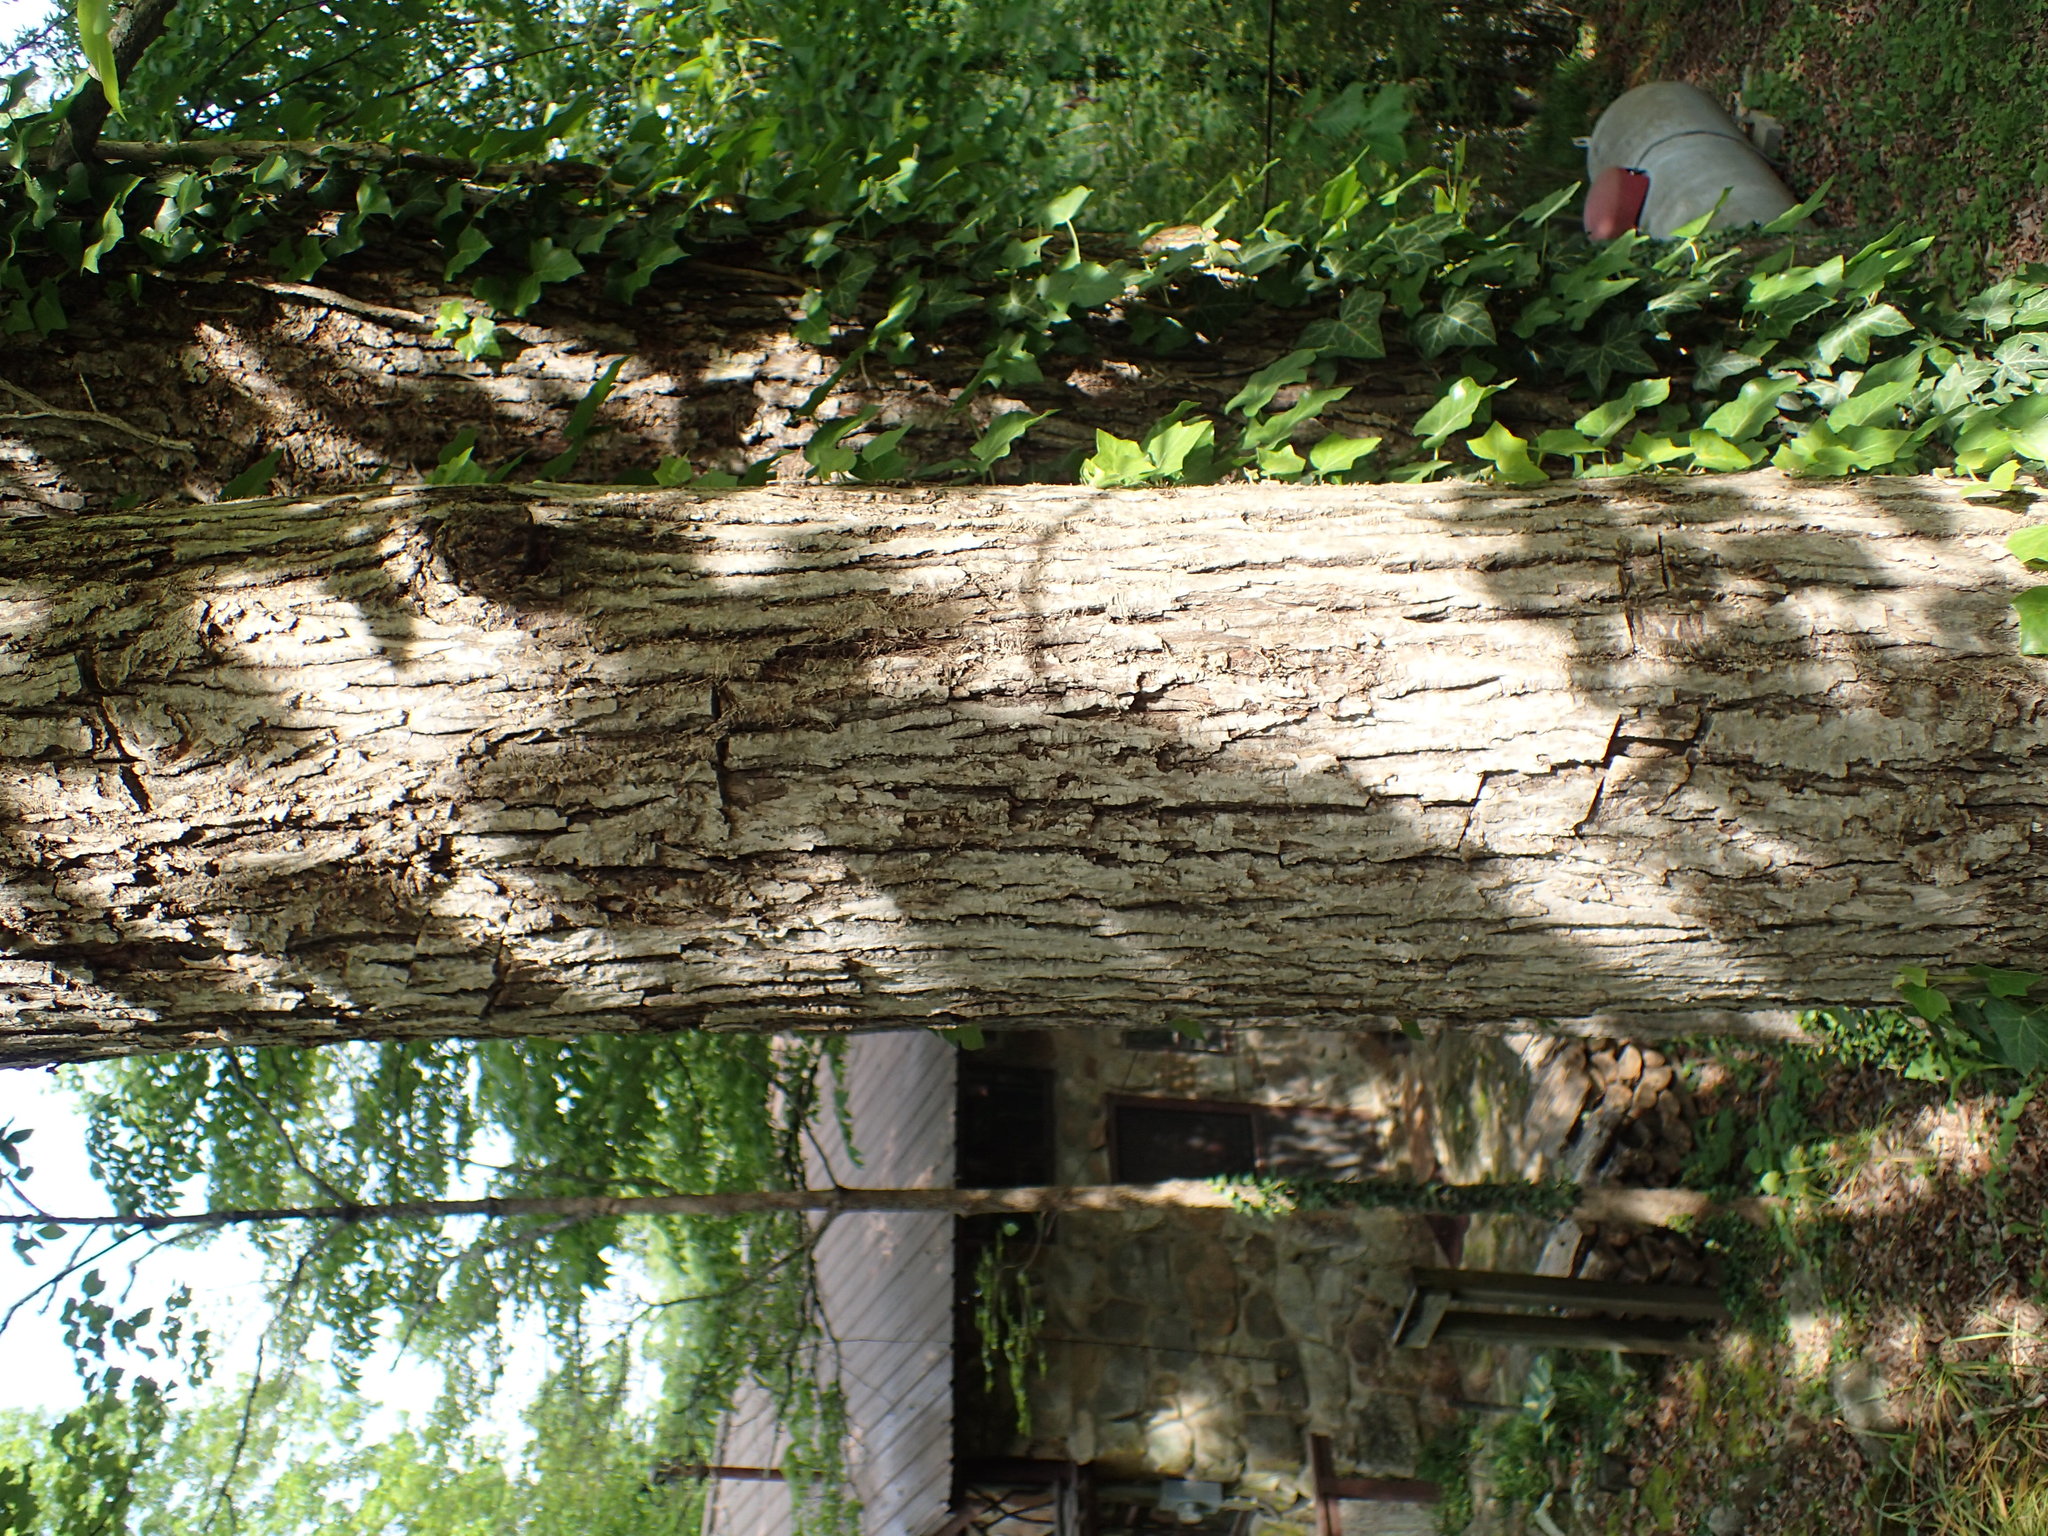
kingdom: Plantae
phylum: Tracheophyta
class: Magnoliopsida
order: Fagales
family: Juglandaceae
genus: Carya
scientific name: Carya glabra
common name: Pignut hickory
